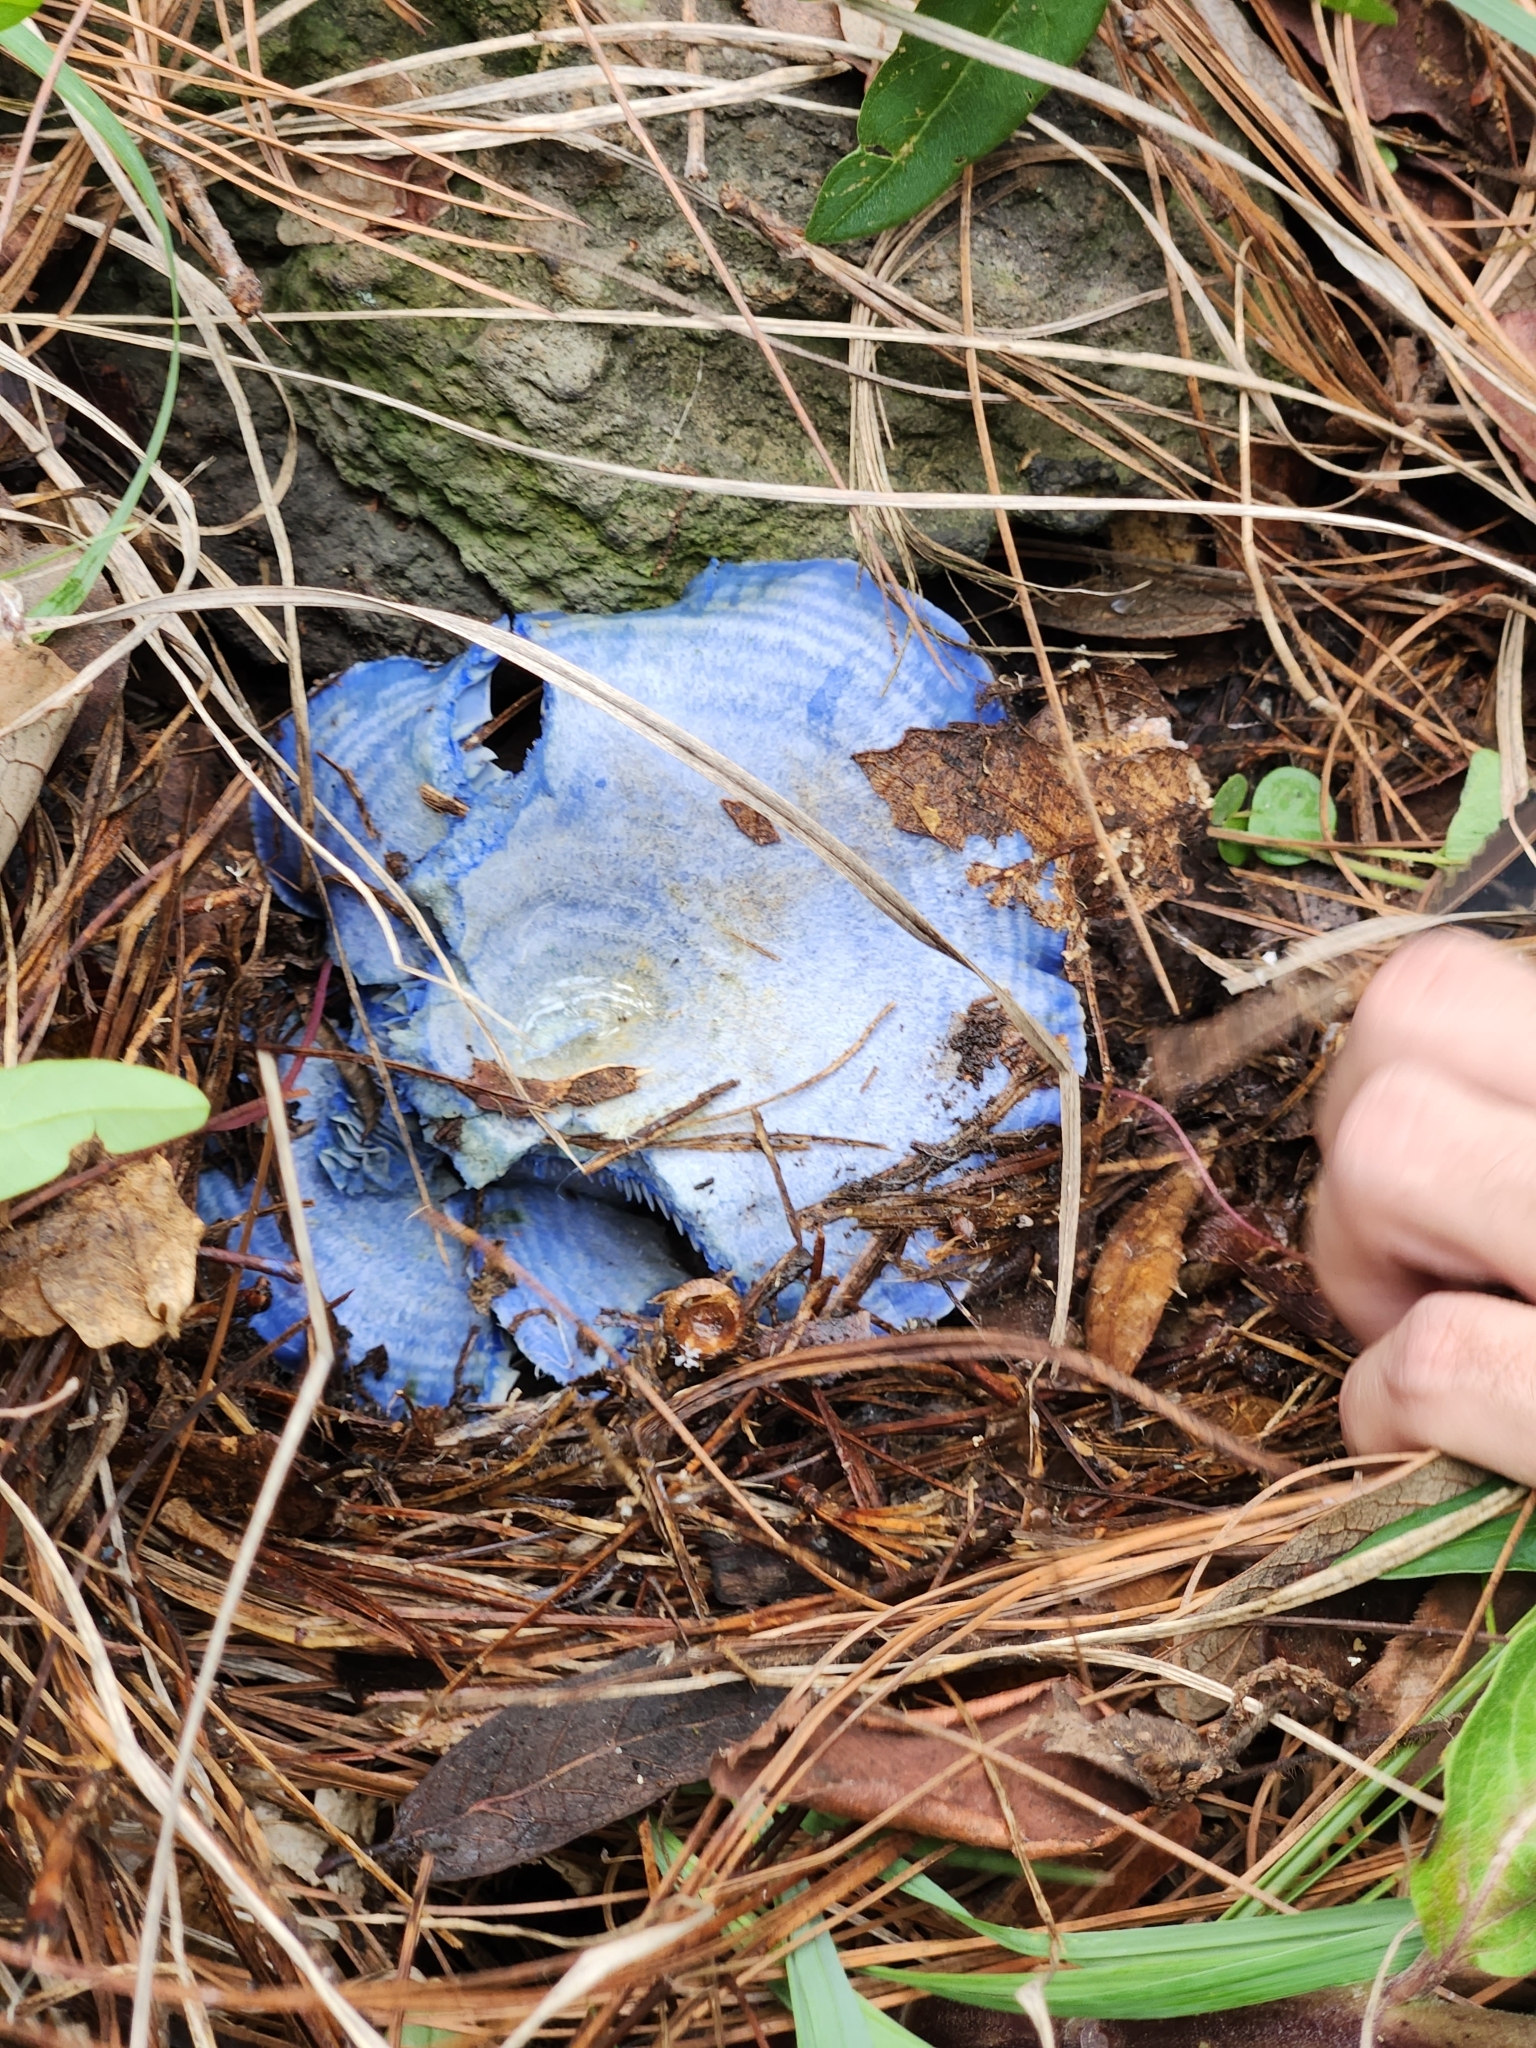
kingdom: Fungi
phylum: Basidiomycota
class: Agaricomycetes
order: Russulales
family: Russulaceae
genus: Lactarius
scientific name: Lactarius indigo
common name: Indigo milk cap
